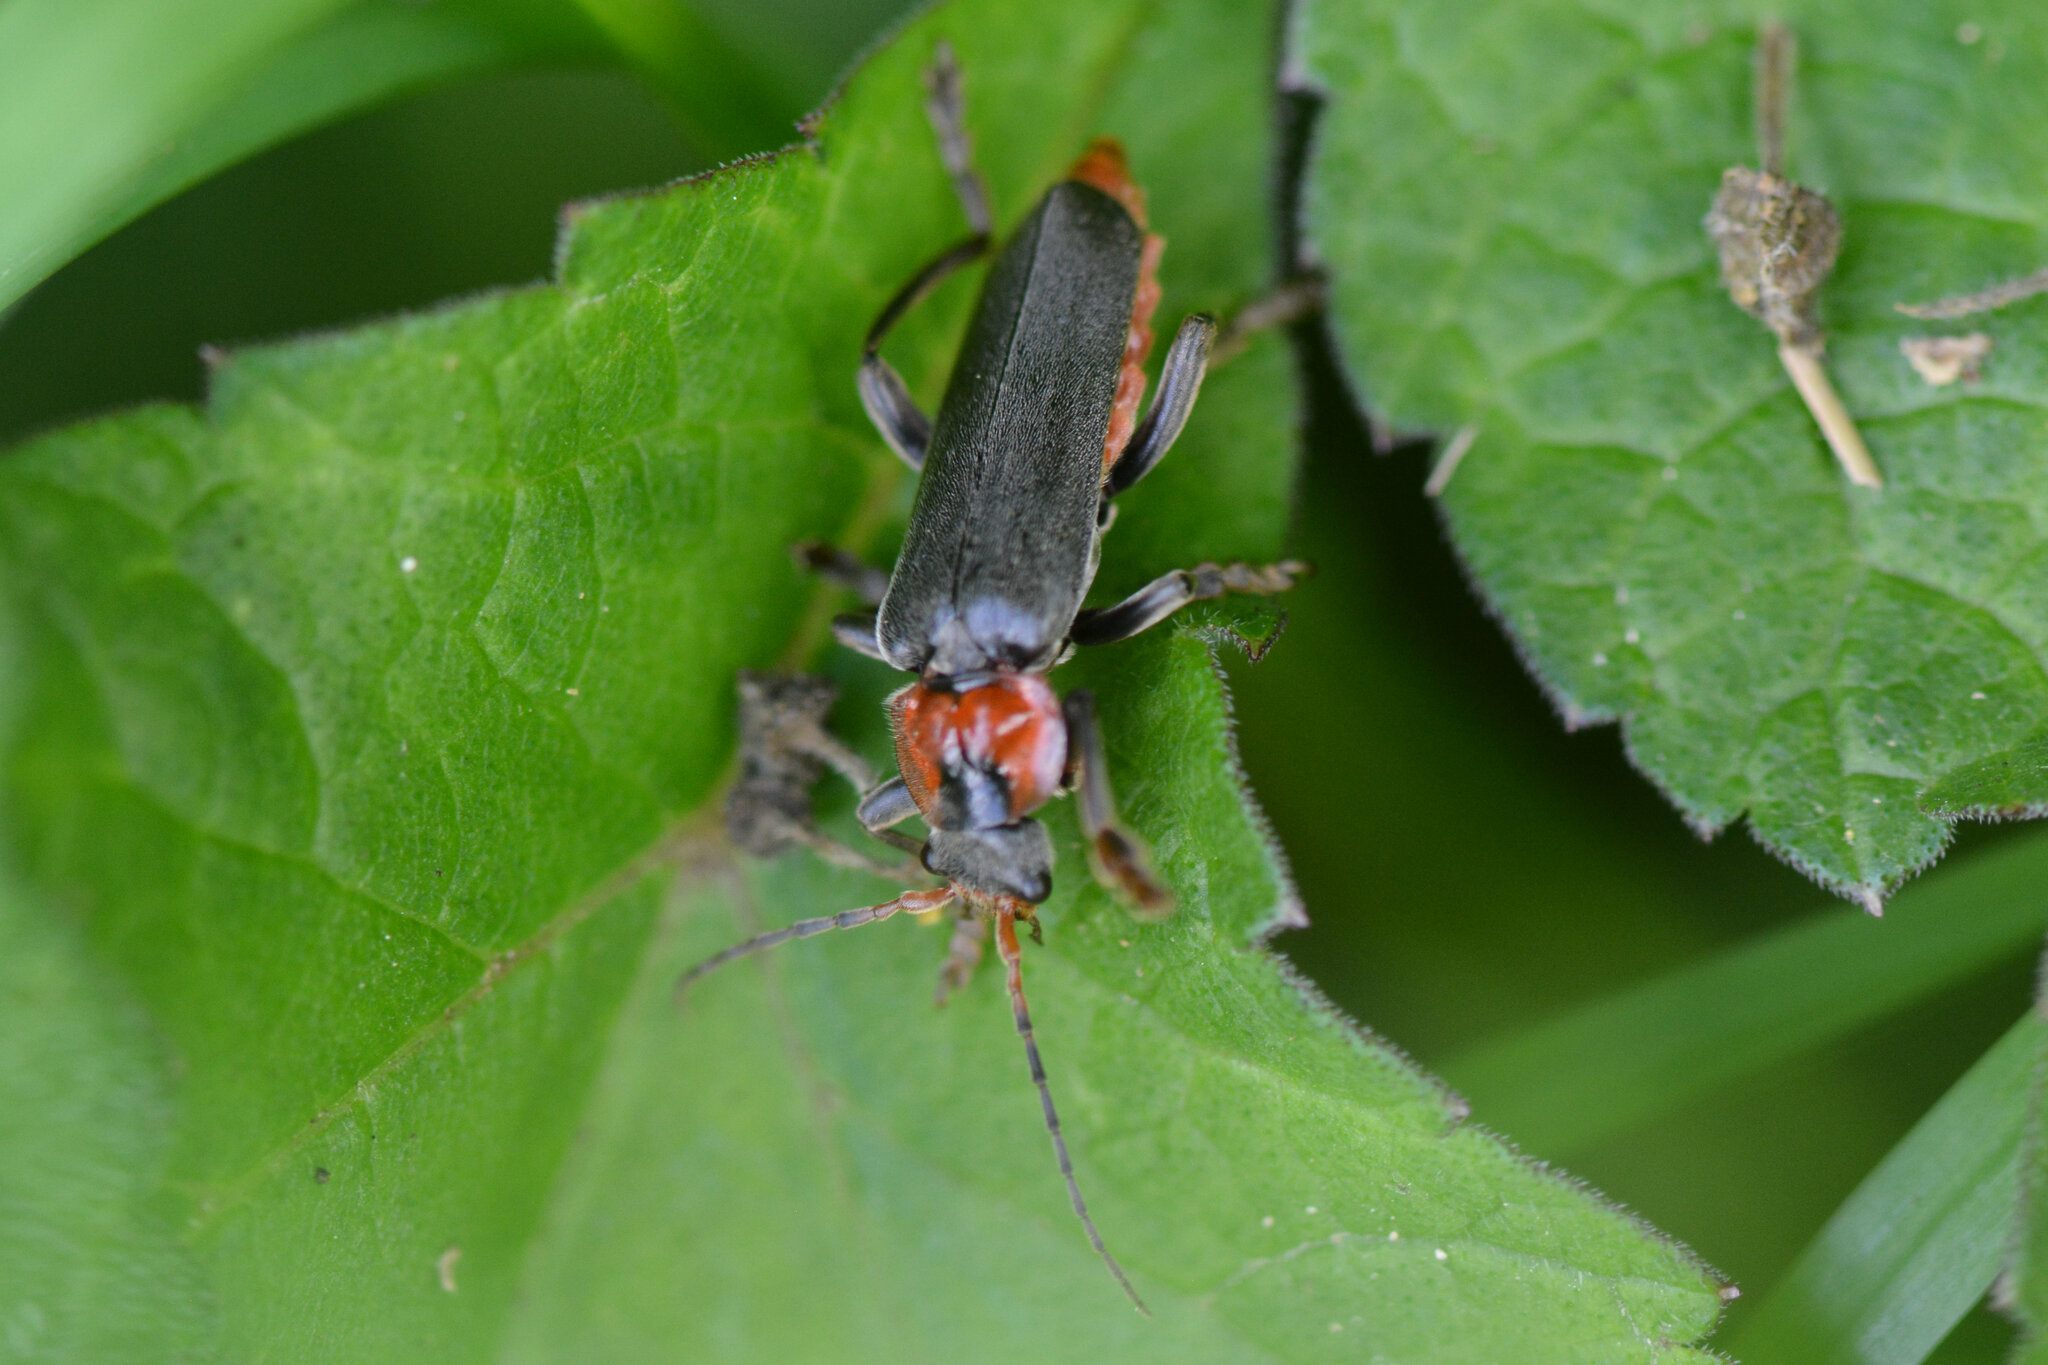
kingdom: Animalia
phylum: Arthropoda
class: Insecta
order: Coleoptera
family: Cantharidae
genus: Cantharis
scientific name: Cantharis fusca
